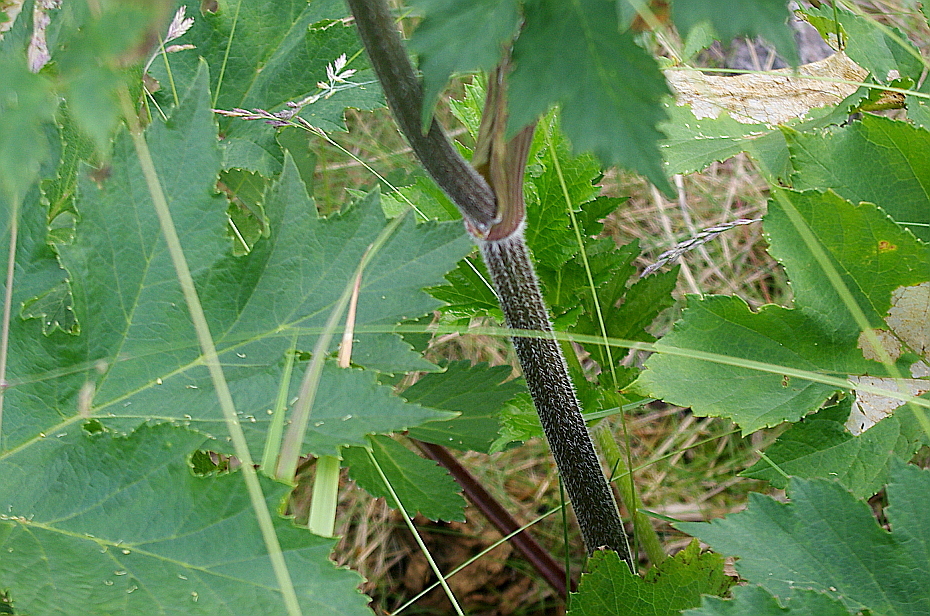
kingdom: Plantae
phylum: Tracheophyta
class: Magnoliopsida
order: Apiales
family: Apiaceae
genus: Heracleum
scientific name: Heracleum sphondylium
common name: Hogweed
